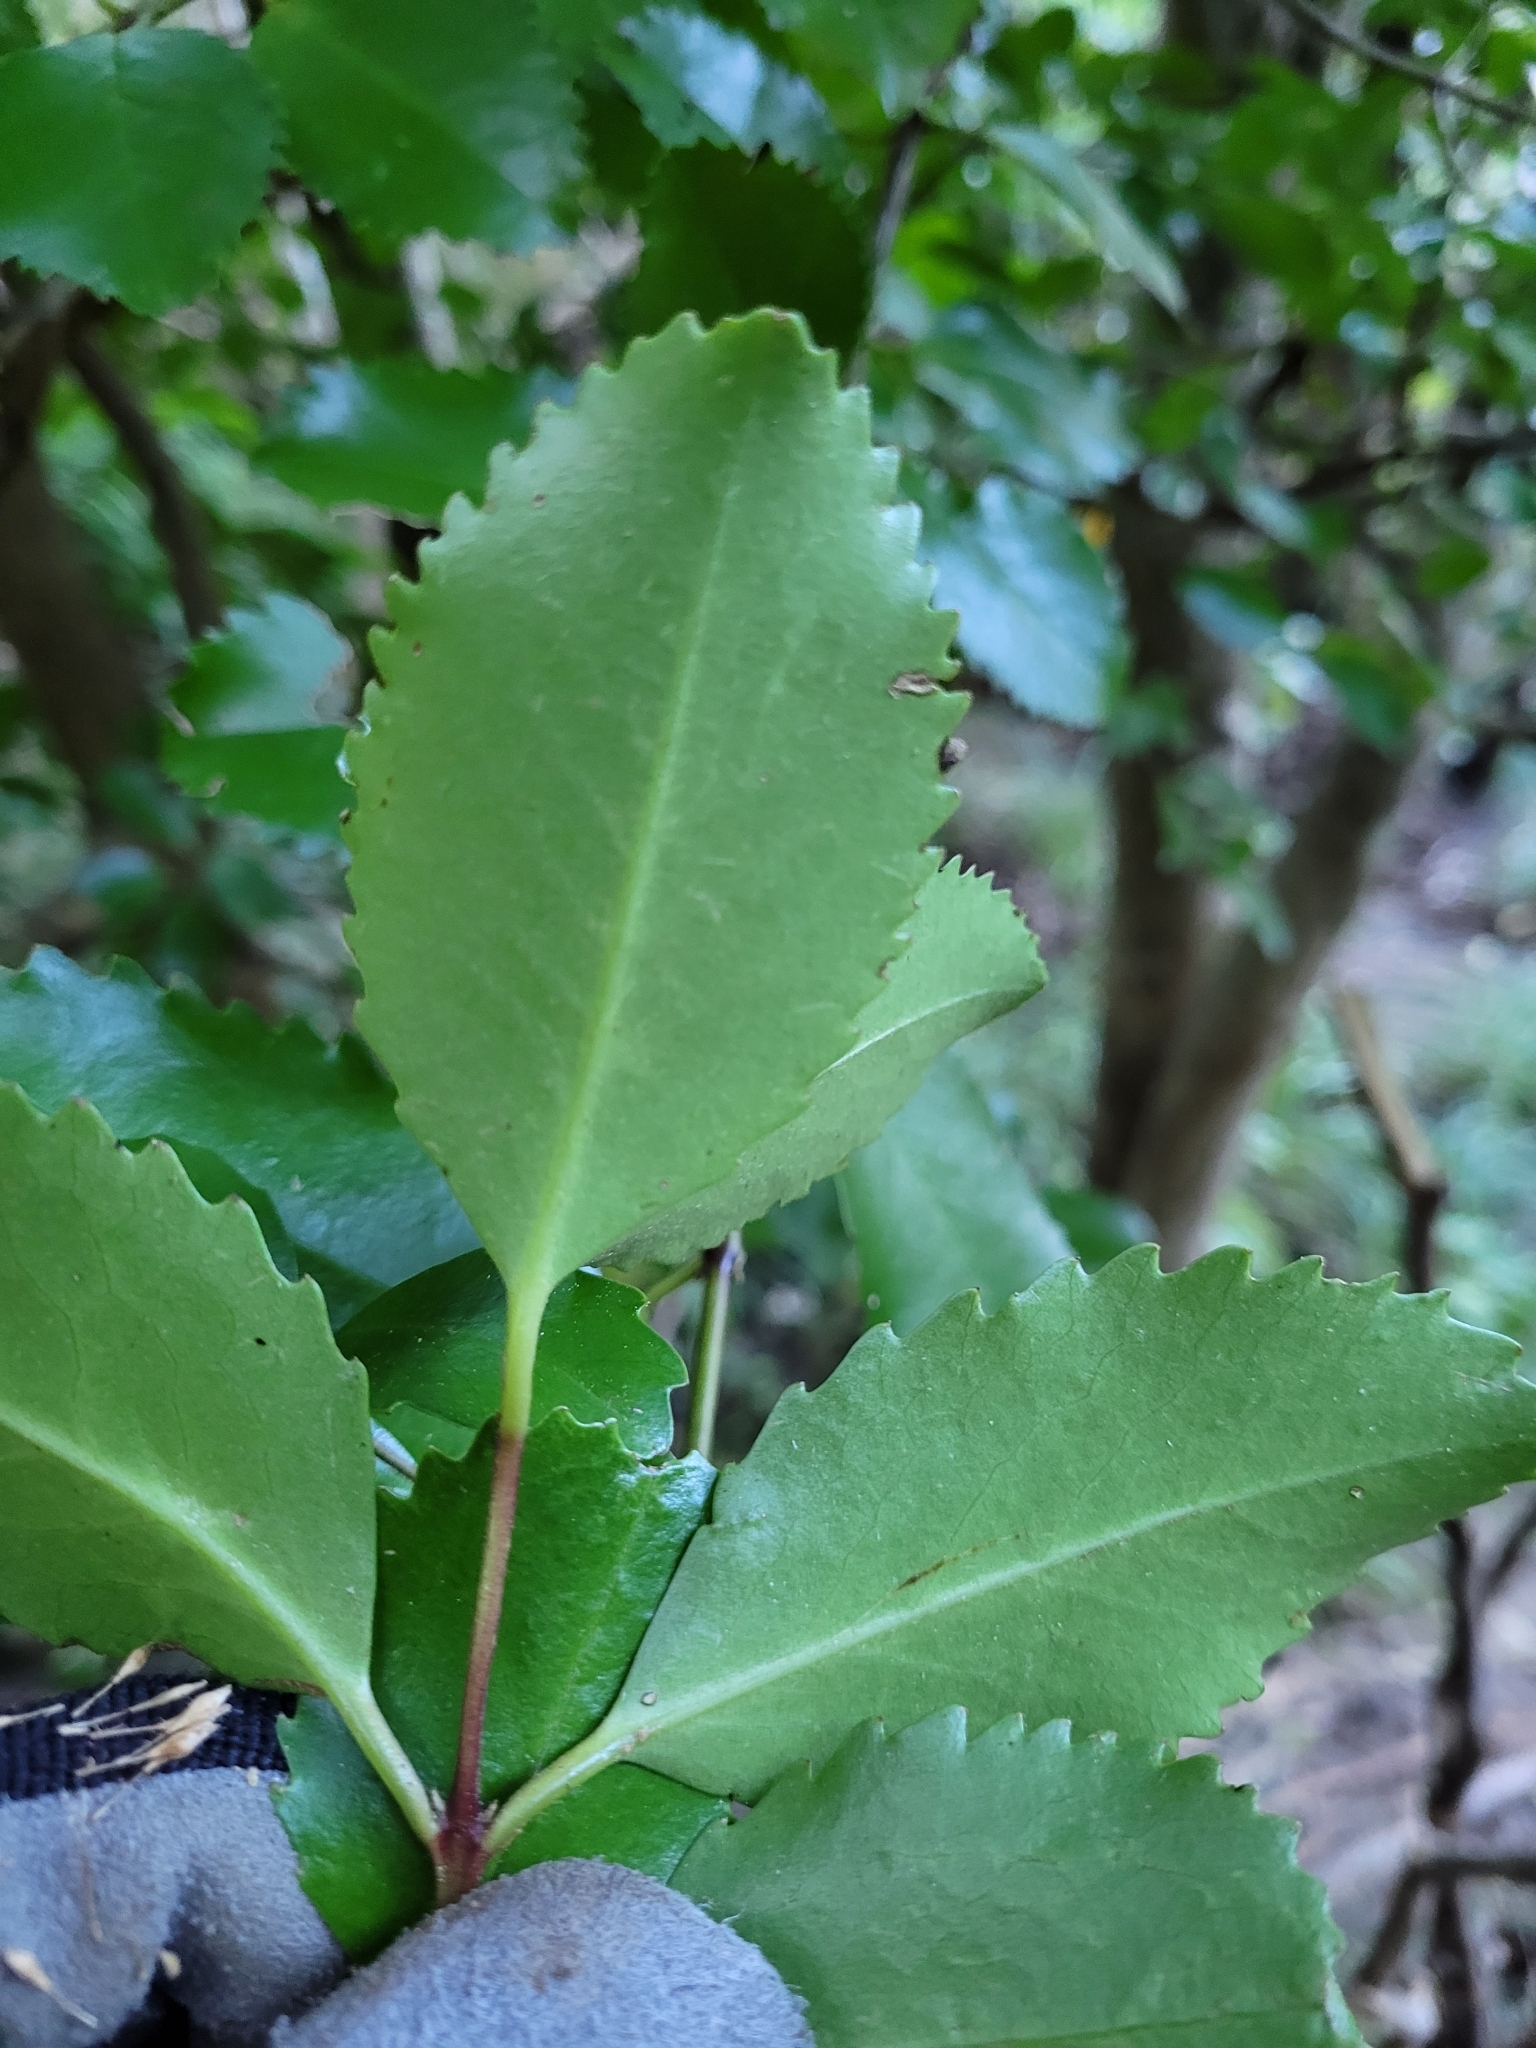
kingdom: Plantae
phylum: Tracheophyta
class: Magnoliopsida
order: Laurales
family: Atherospermataceae
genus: Laurelia
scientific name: Laurelia novae-zelandiae
